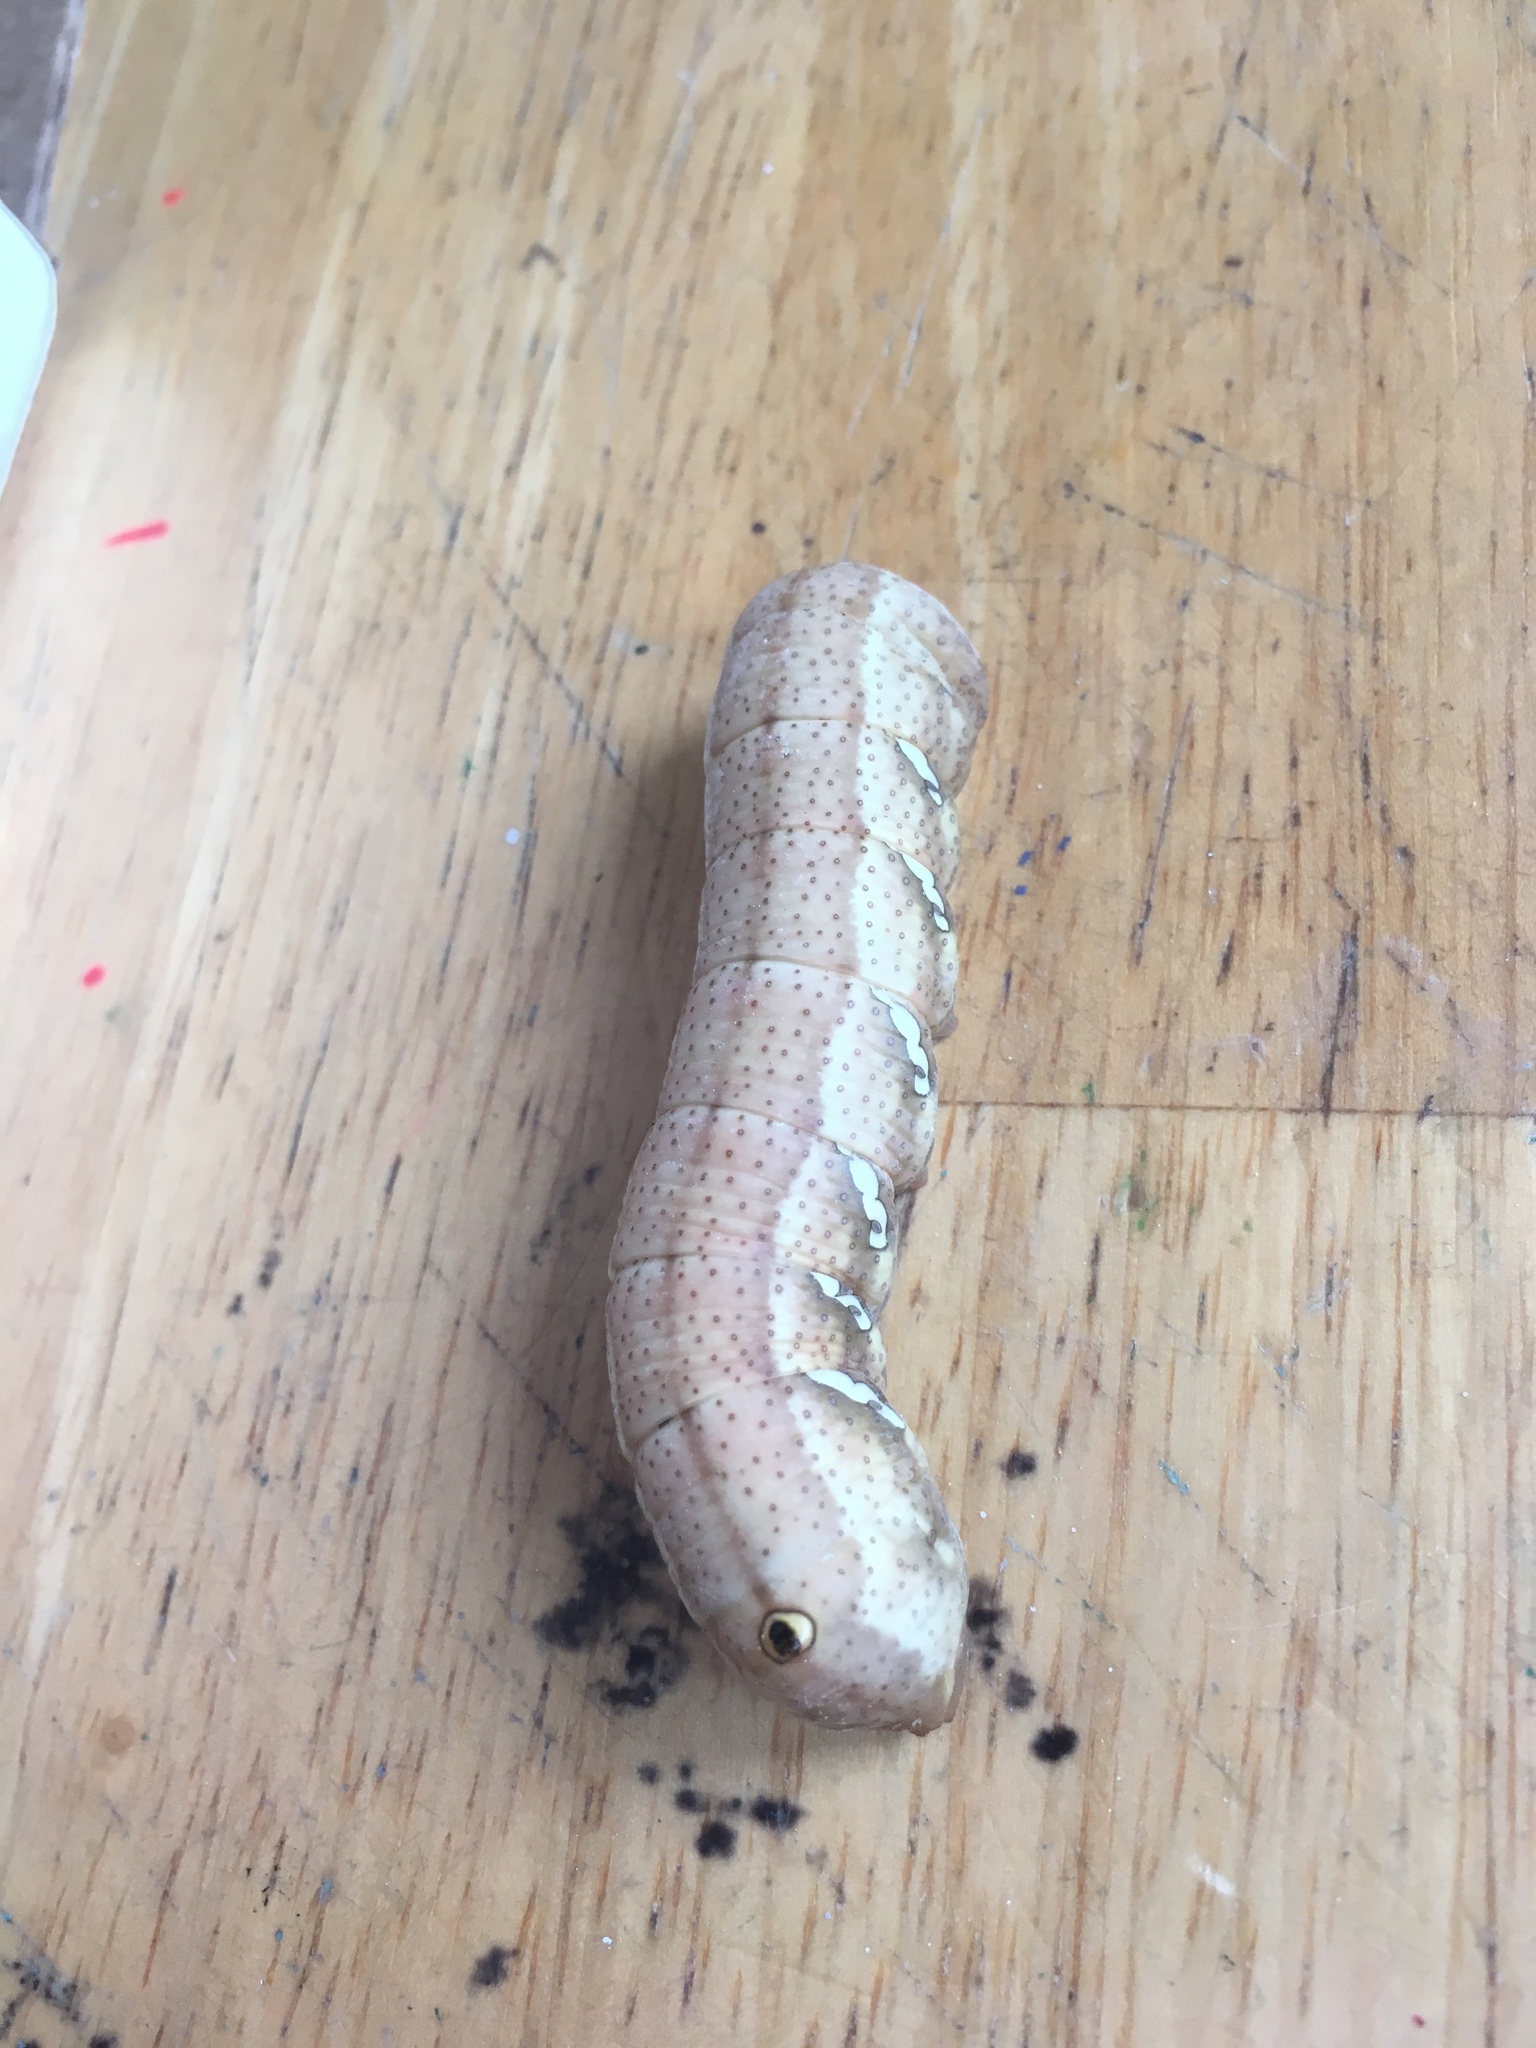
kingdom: Animalia
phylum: Arthropoda
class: Insecta
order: Lepidoptera
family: Sphingidae
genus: Eumorpha
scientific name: Eumorpha achemon
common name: Achemon sphinx
